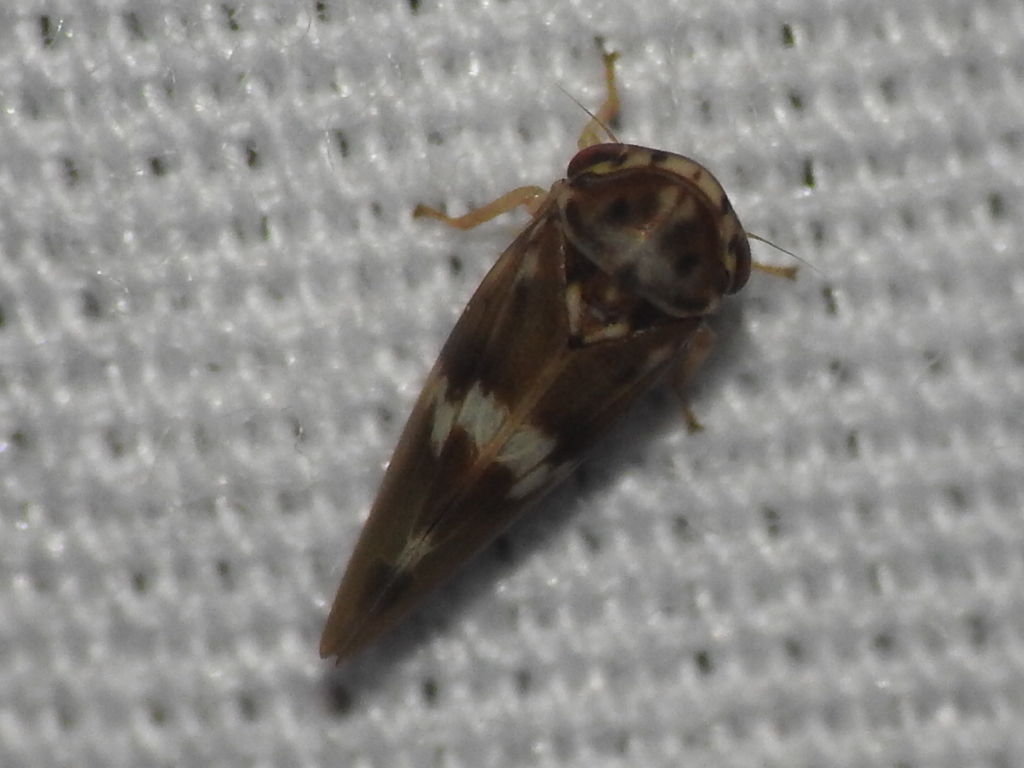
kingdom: Animalia
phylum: Arthropoda
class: Insecta
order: Hemiptera
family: Cicadellidae
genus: Agalliopsis
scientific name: Agalliopsis cervina
